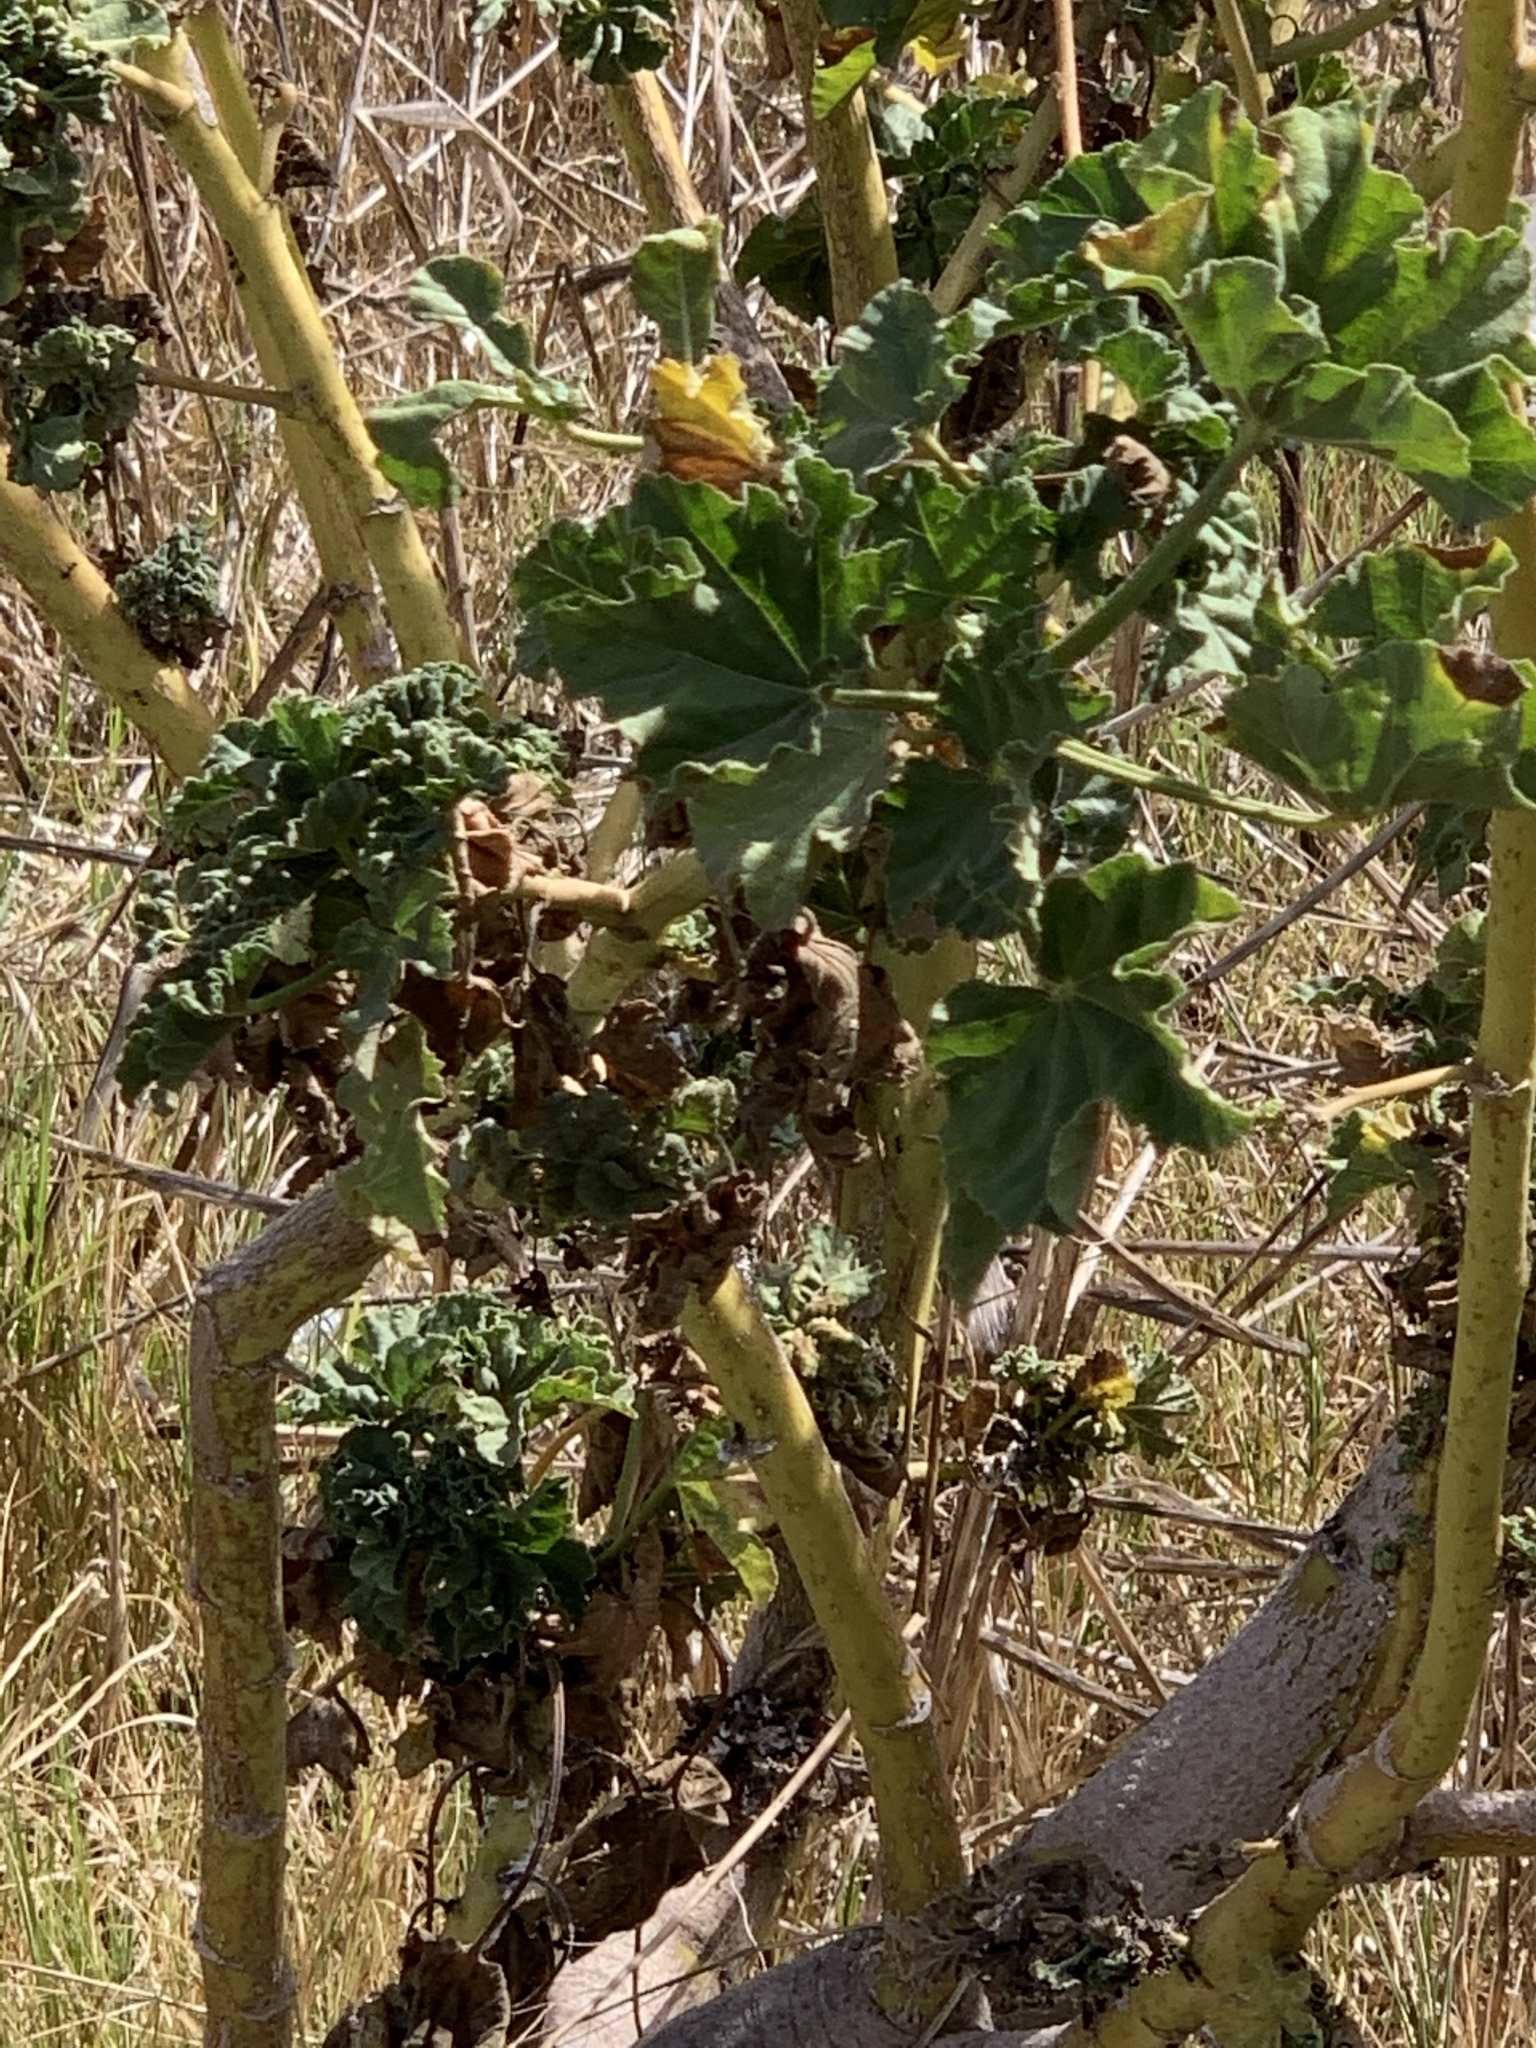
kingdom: Plantae
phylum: Tracheophyta
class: Magnoliopsida
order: Malvales
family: Malvaceae
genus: Malva
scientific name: Malva arborea
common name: Tree mallow
